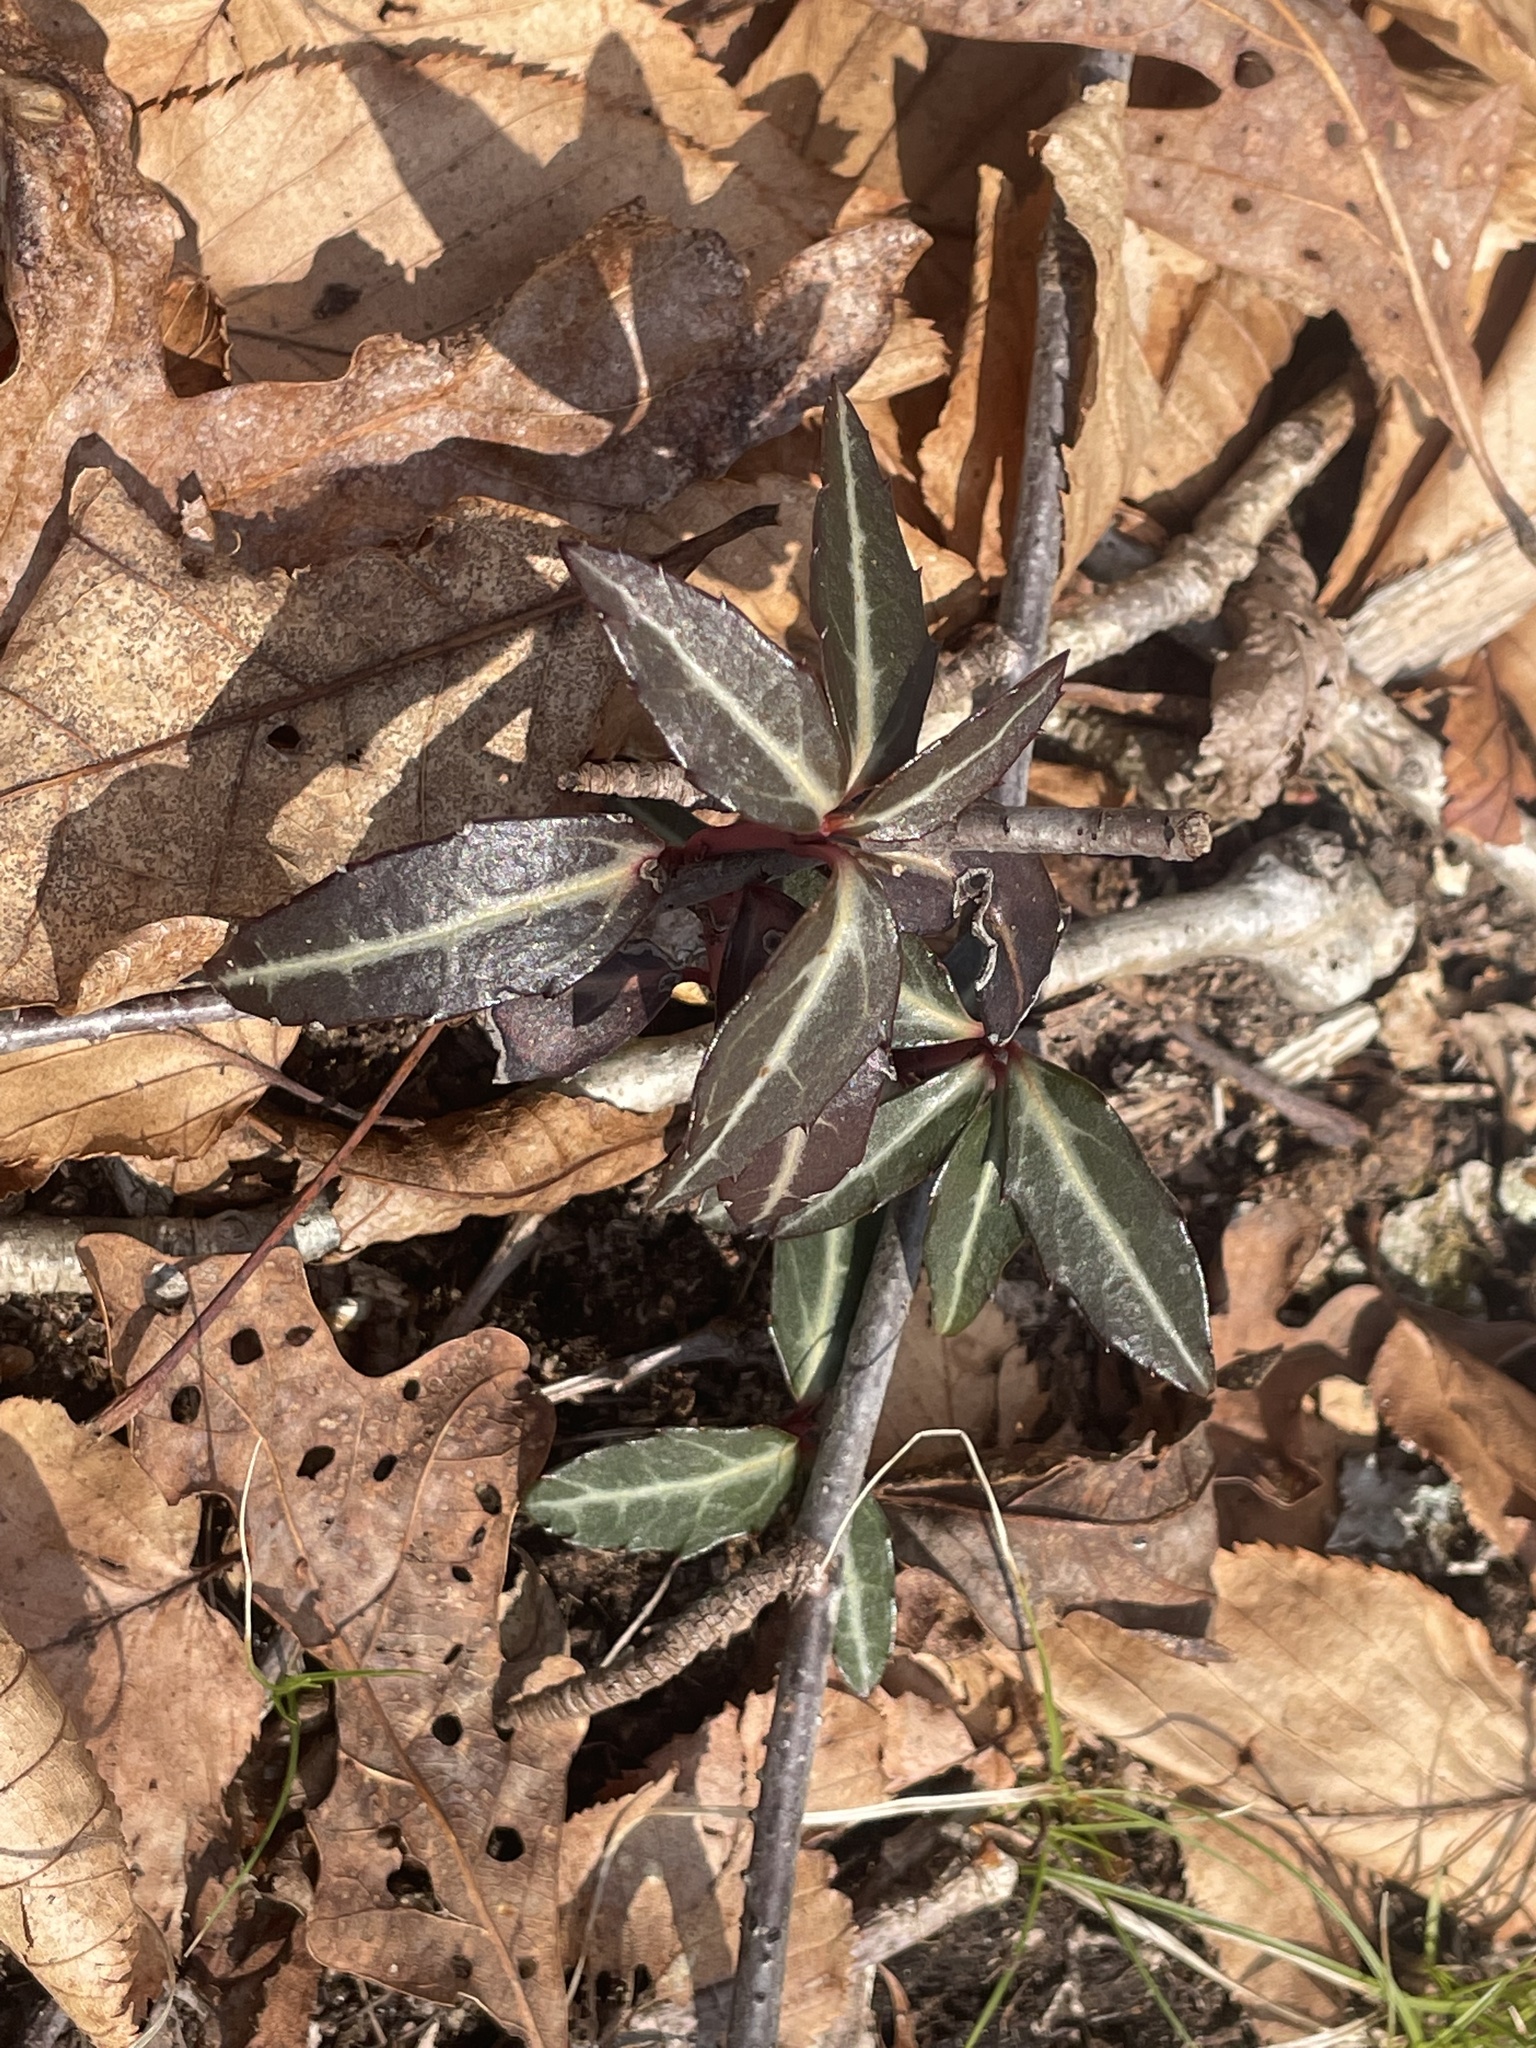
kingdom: Plantae
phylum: Tracheophyta
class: Magnoliopsida
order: Ericales
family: Ericaceae
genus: Chimaphila
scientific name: Chimaphila maculata
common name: Spotted pipsissewa
